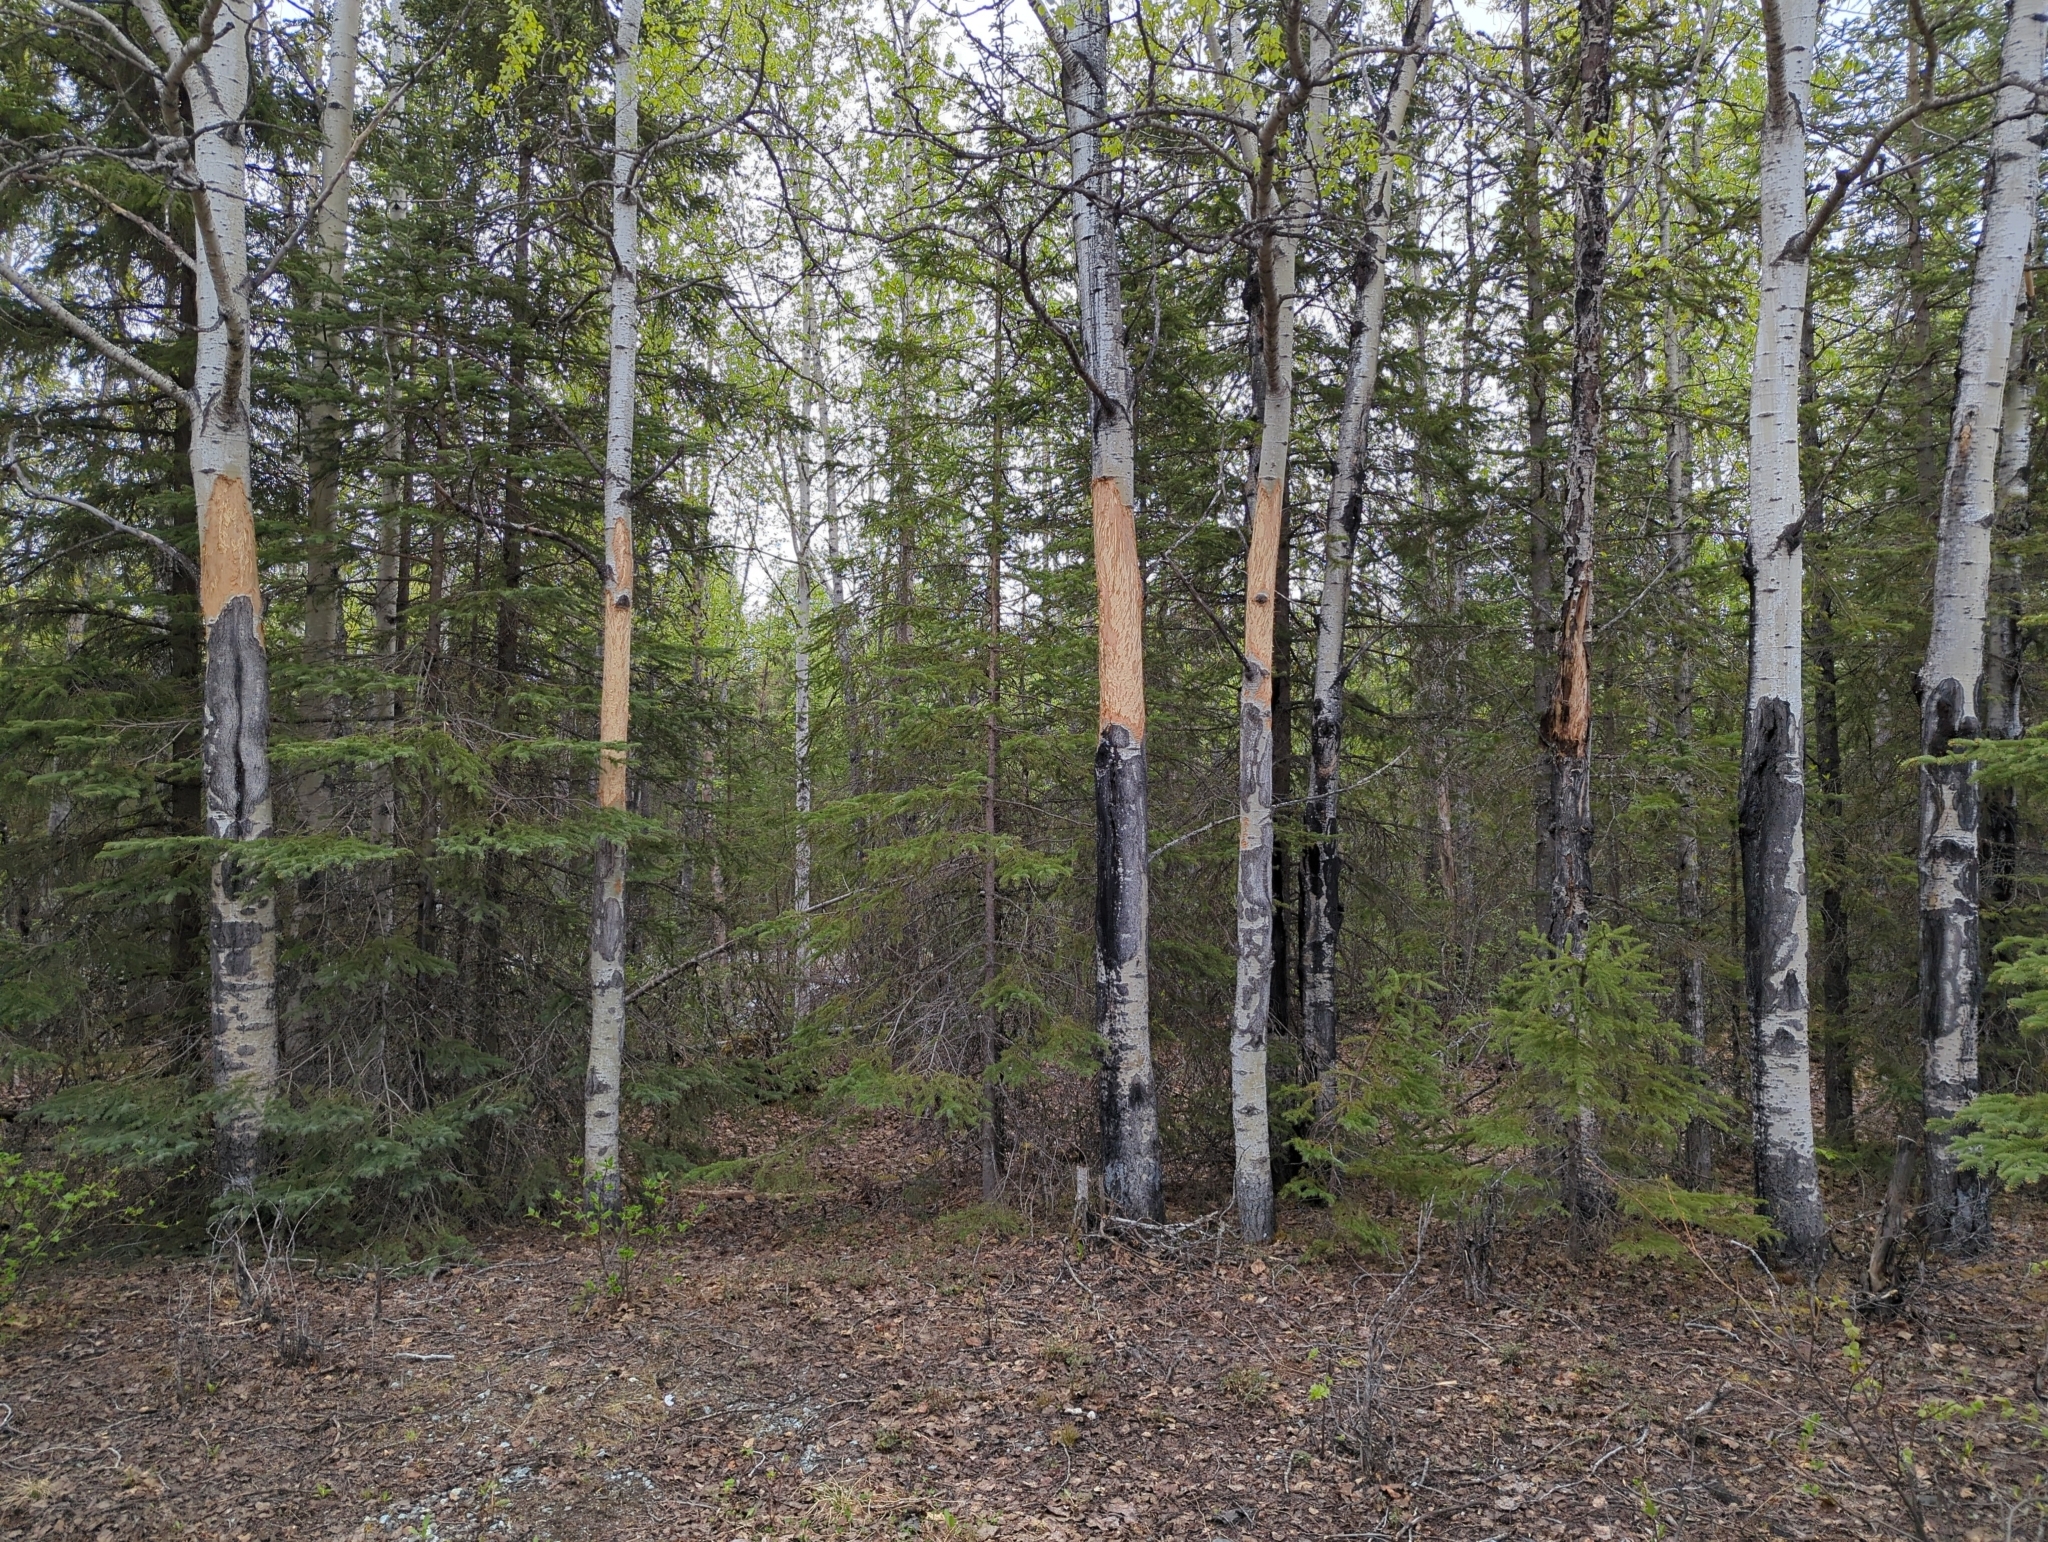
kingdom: Animalia
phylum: Chordata
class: Mammalia
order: Artiodactyla
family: Cervidae
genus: Alces
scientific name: Alces alces
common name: Moose
